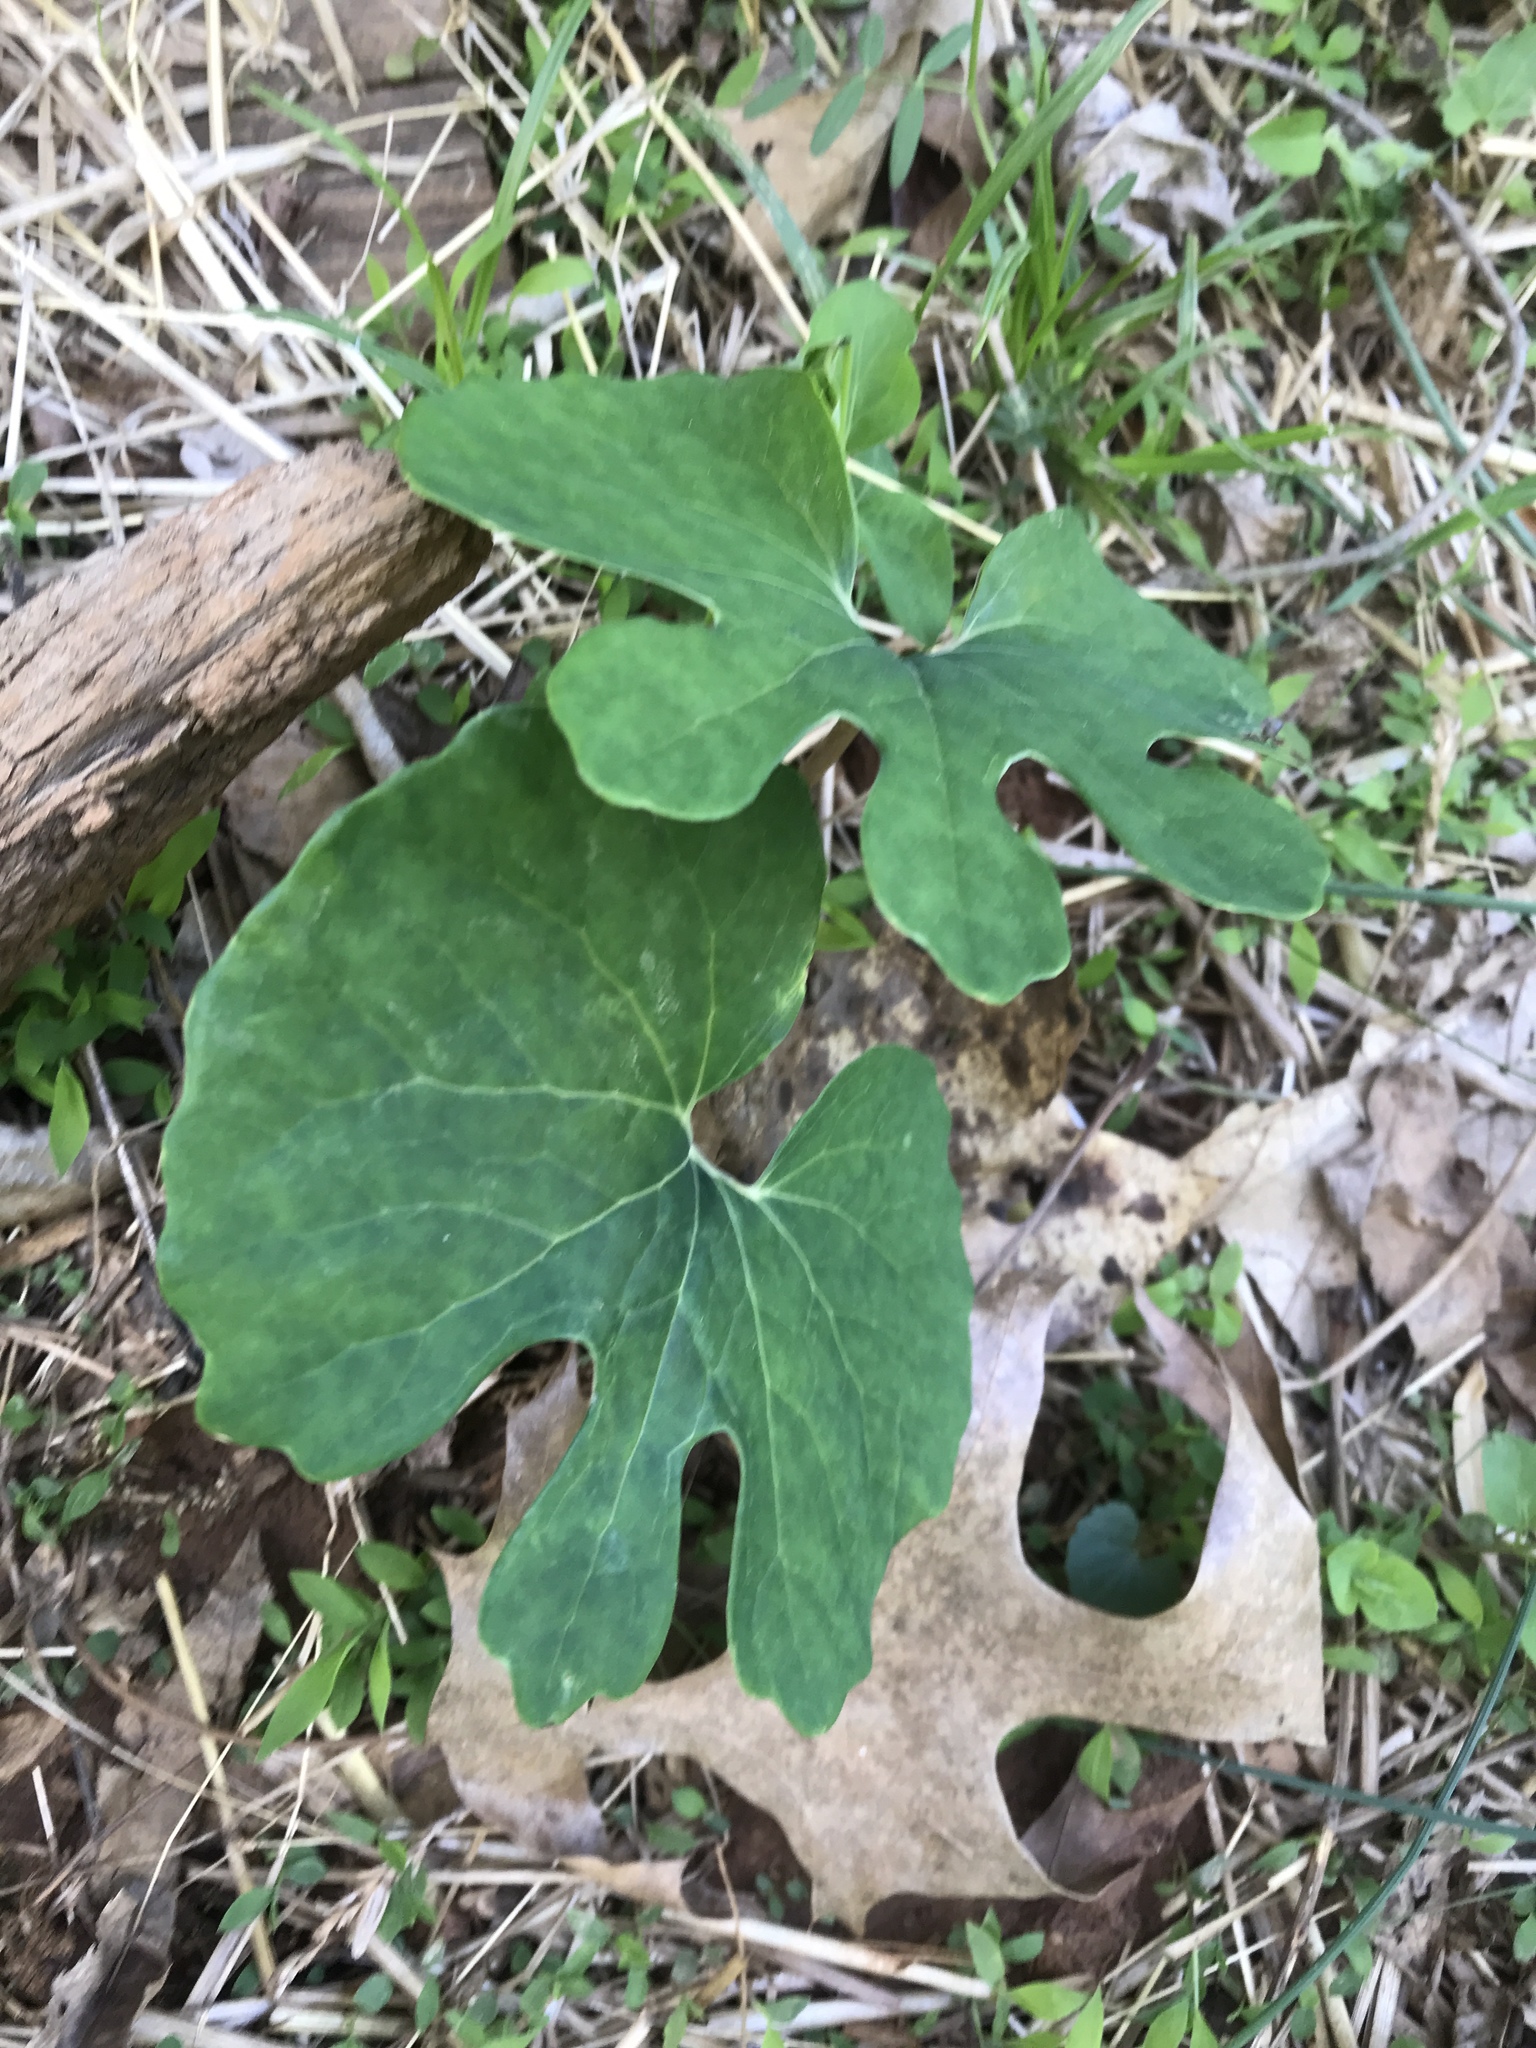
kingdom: Plantae
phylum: Tracheophyta
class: Magnoliopsida
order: Ranunculales
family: Papaveraceae
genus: Sanguinaria
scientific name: Sanguinaria canadensis
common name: Bloodroot
